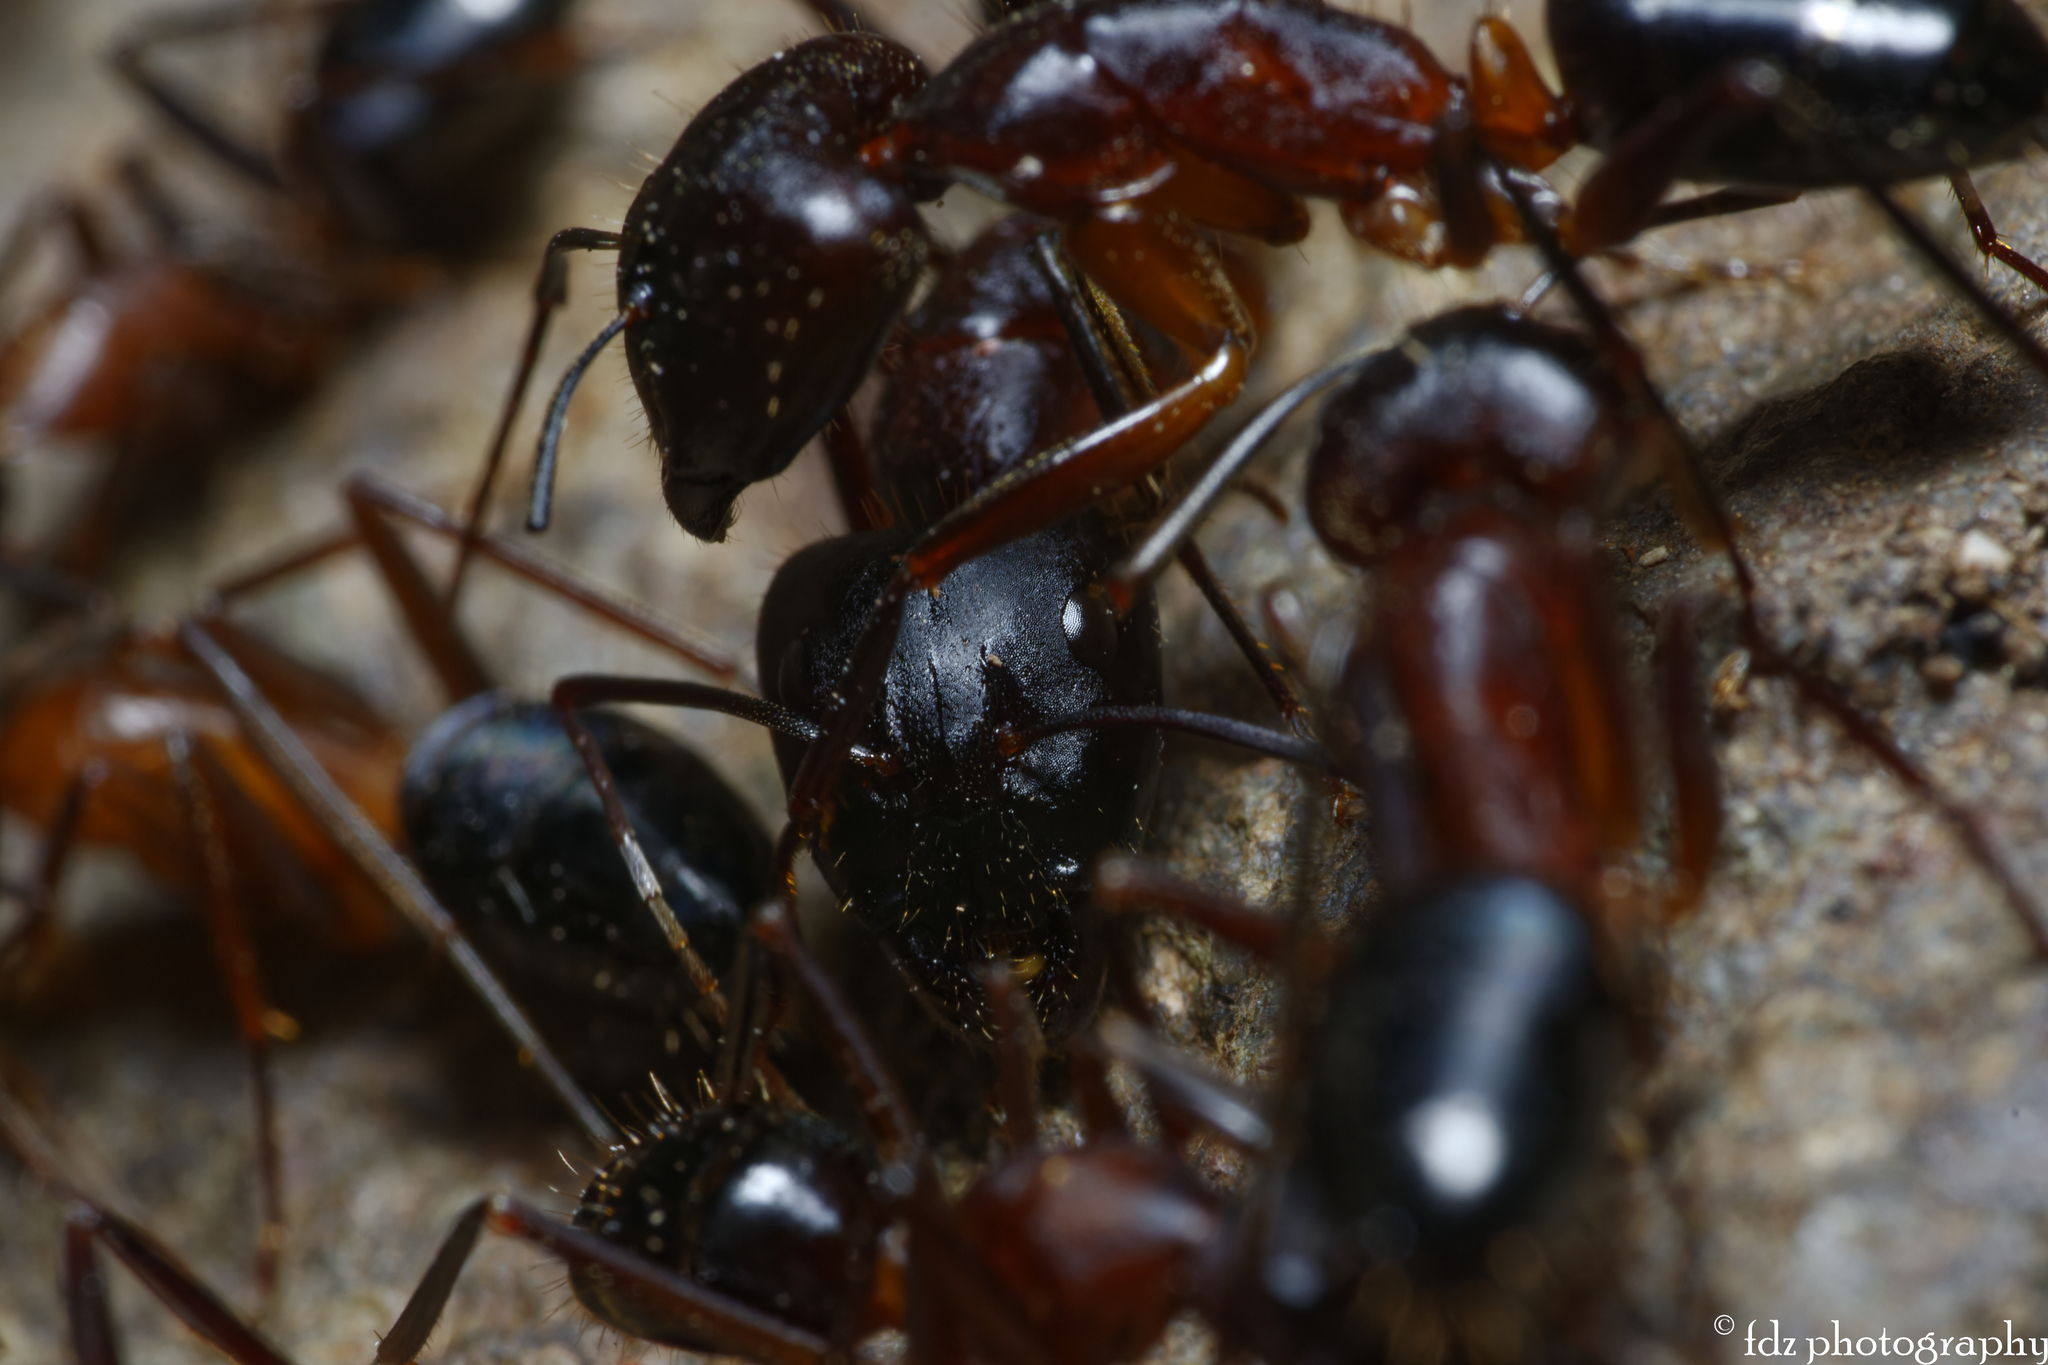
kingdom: Animalia
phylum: Arthropoda
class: Insecta
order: Hymenoptera
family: Formicidae
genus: Camponotus
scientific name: Camponotus barbaricus
